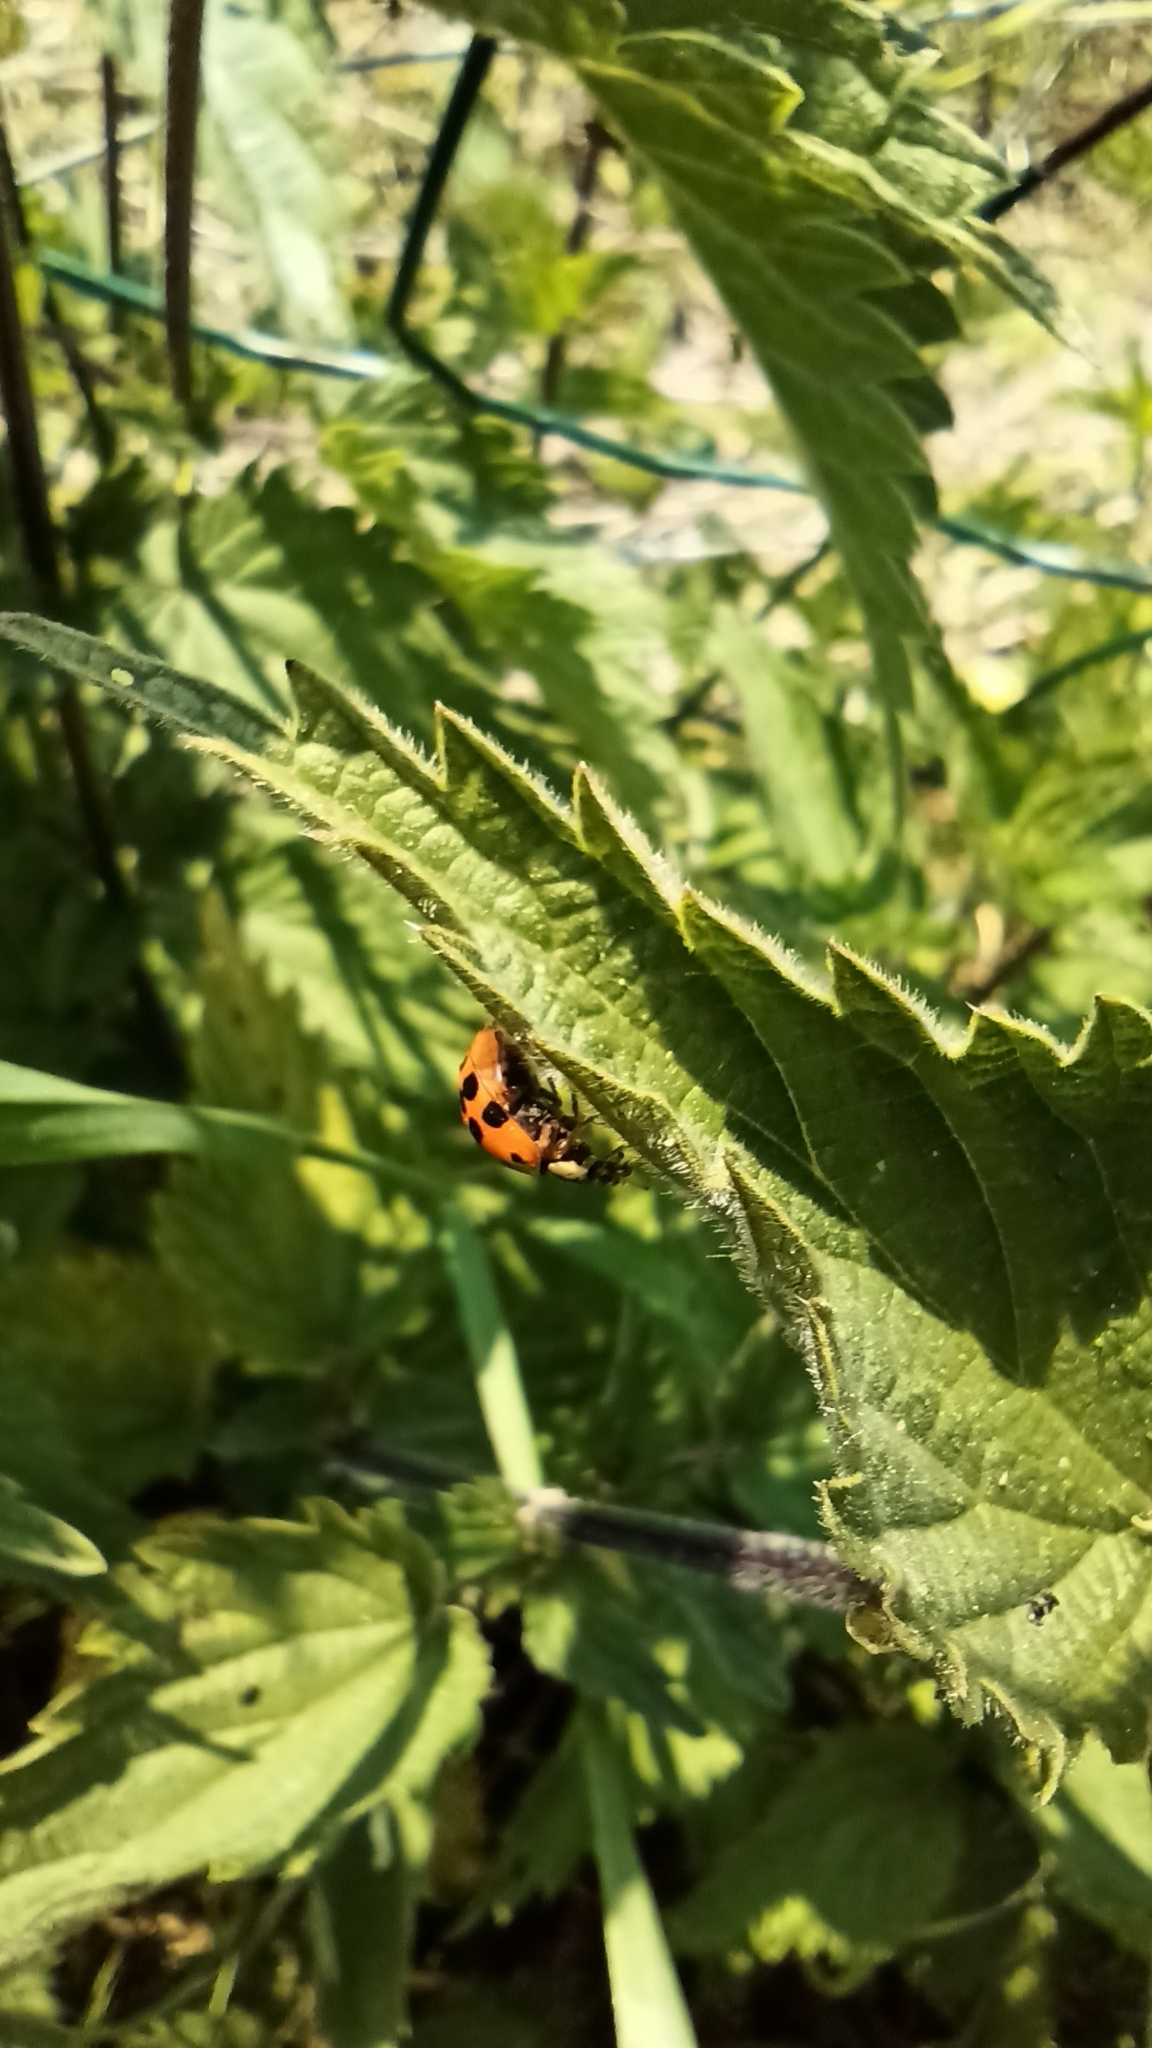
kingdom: Animalia
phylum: Arthropoda
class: Insecta
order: Coleoptera
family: Coccinellidae
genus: Harmonia
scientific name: Harmonia axyridis
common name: Harlequin ladybird
